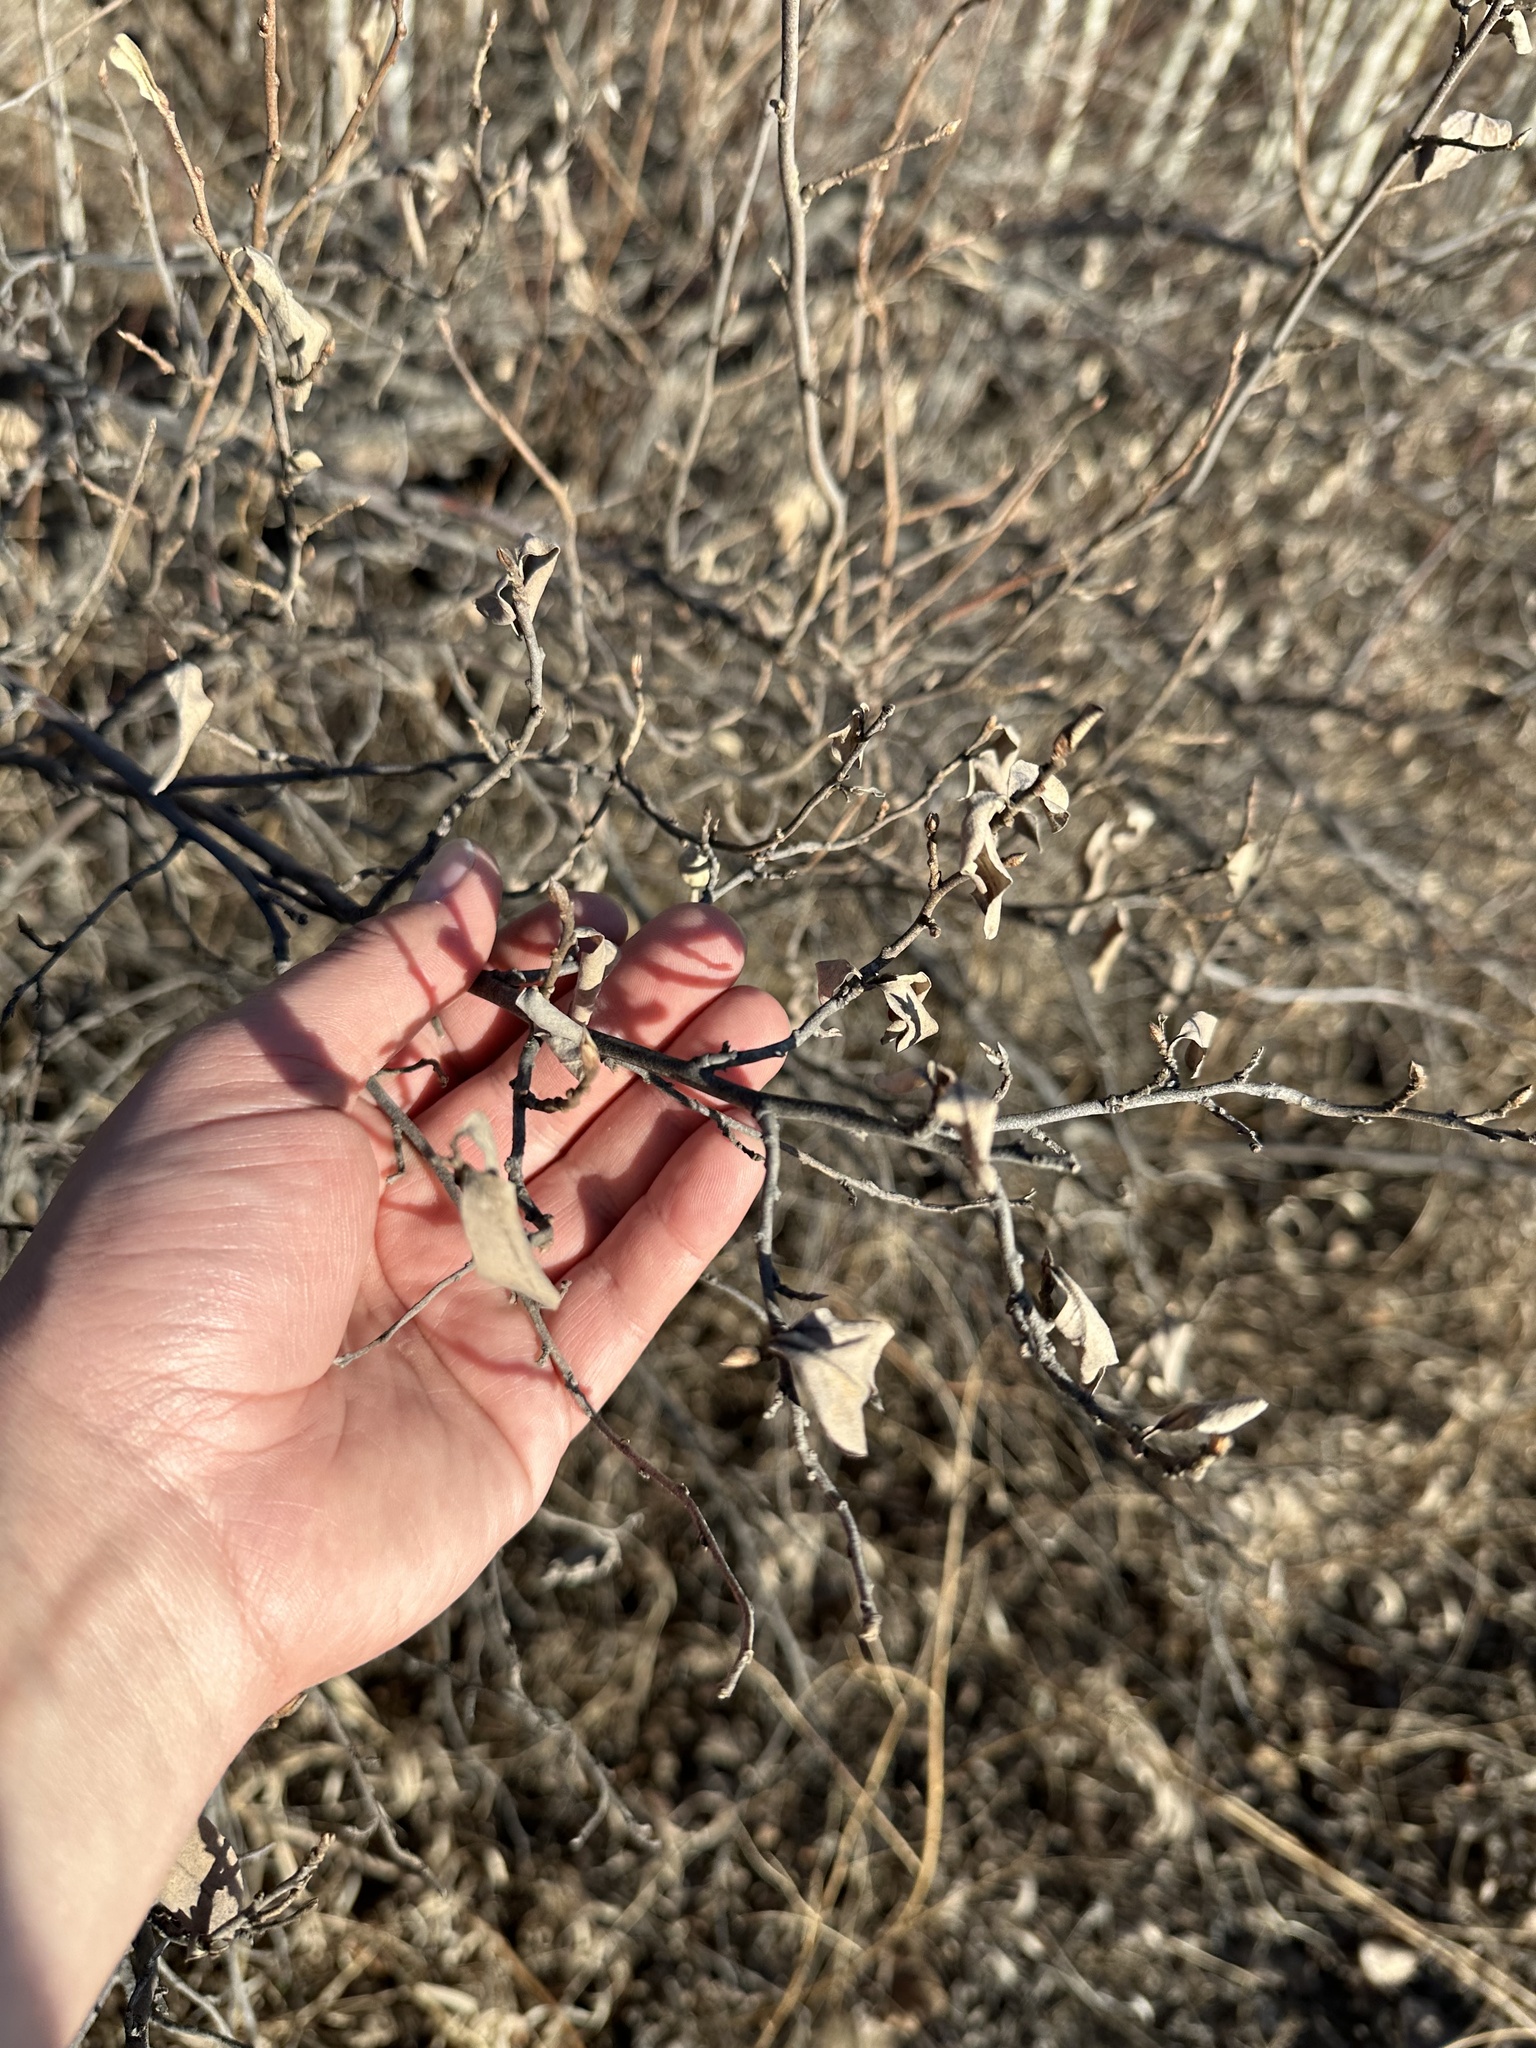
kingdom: Plantae
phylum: Tracheophyta
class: Magnoliopsida
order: Rosales
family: Elaeagnaceae
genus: Elaeagnus
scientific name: Elaeagnus commutata
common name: Silverberry
